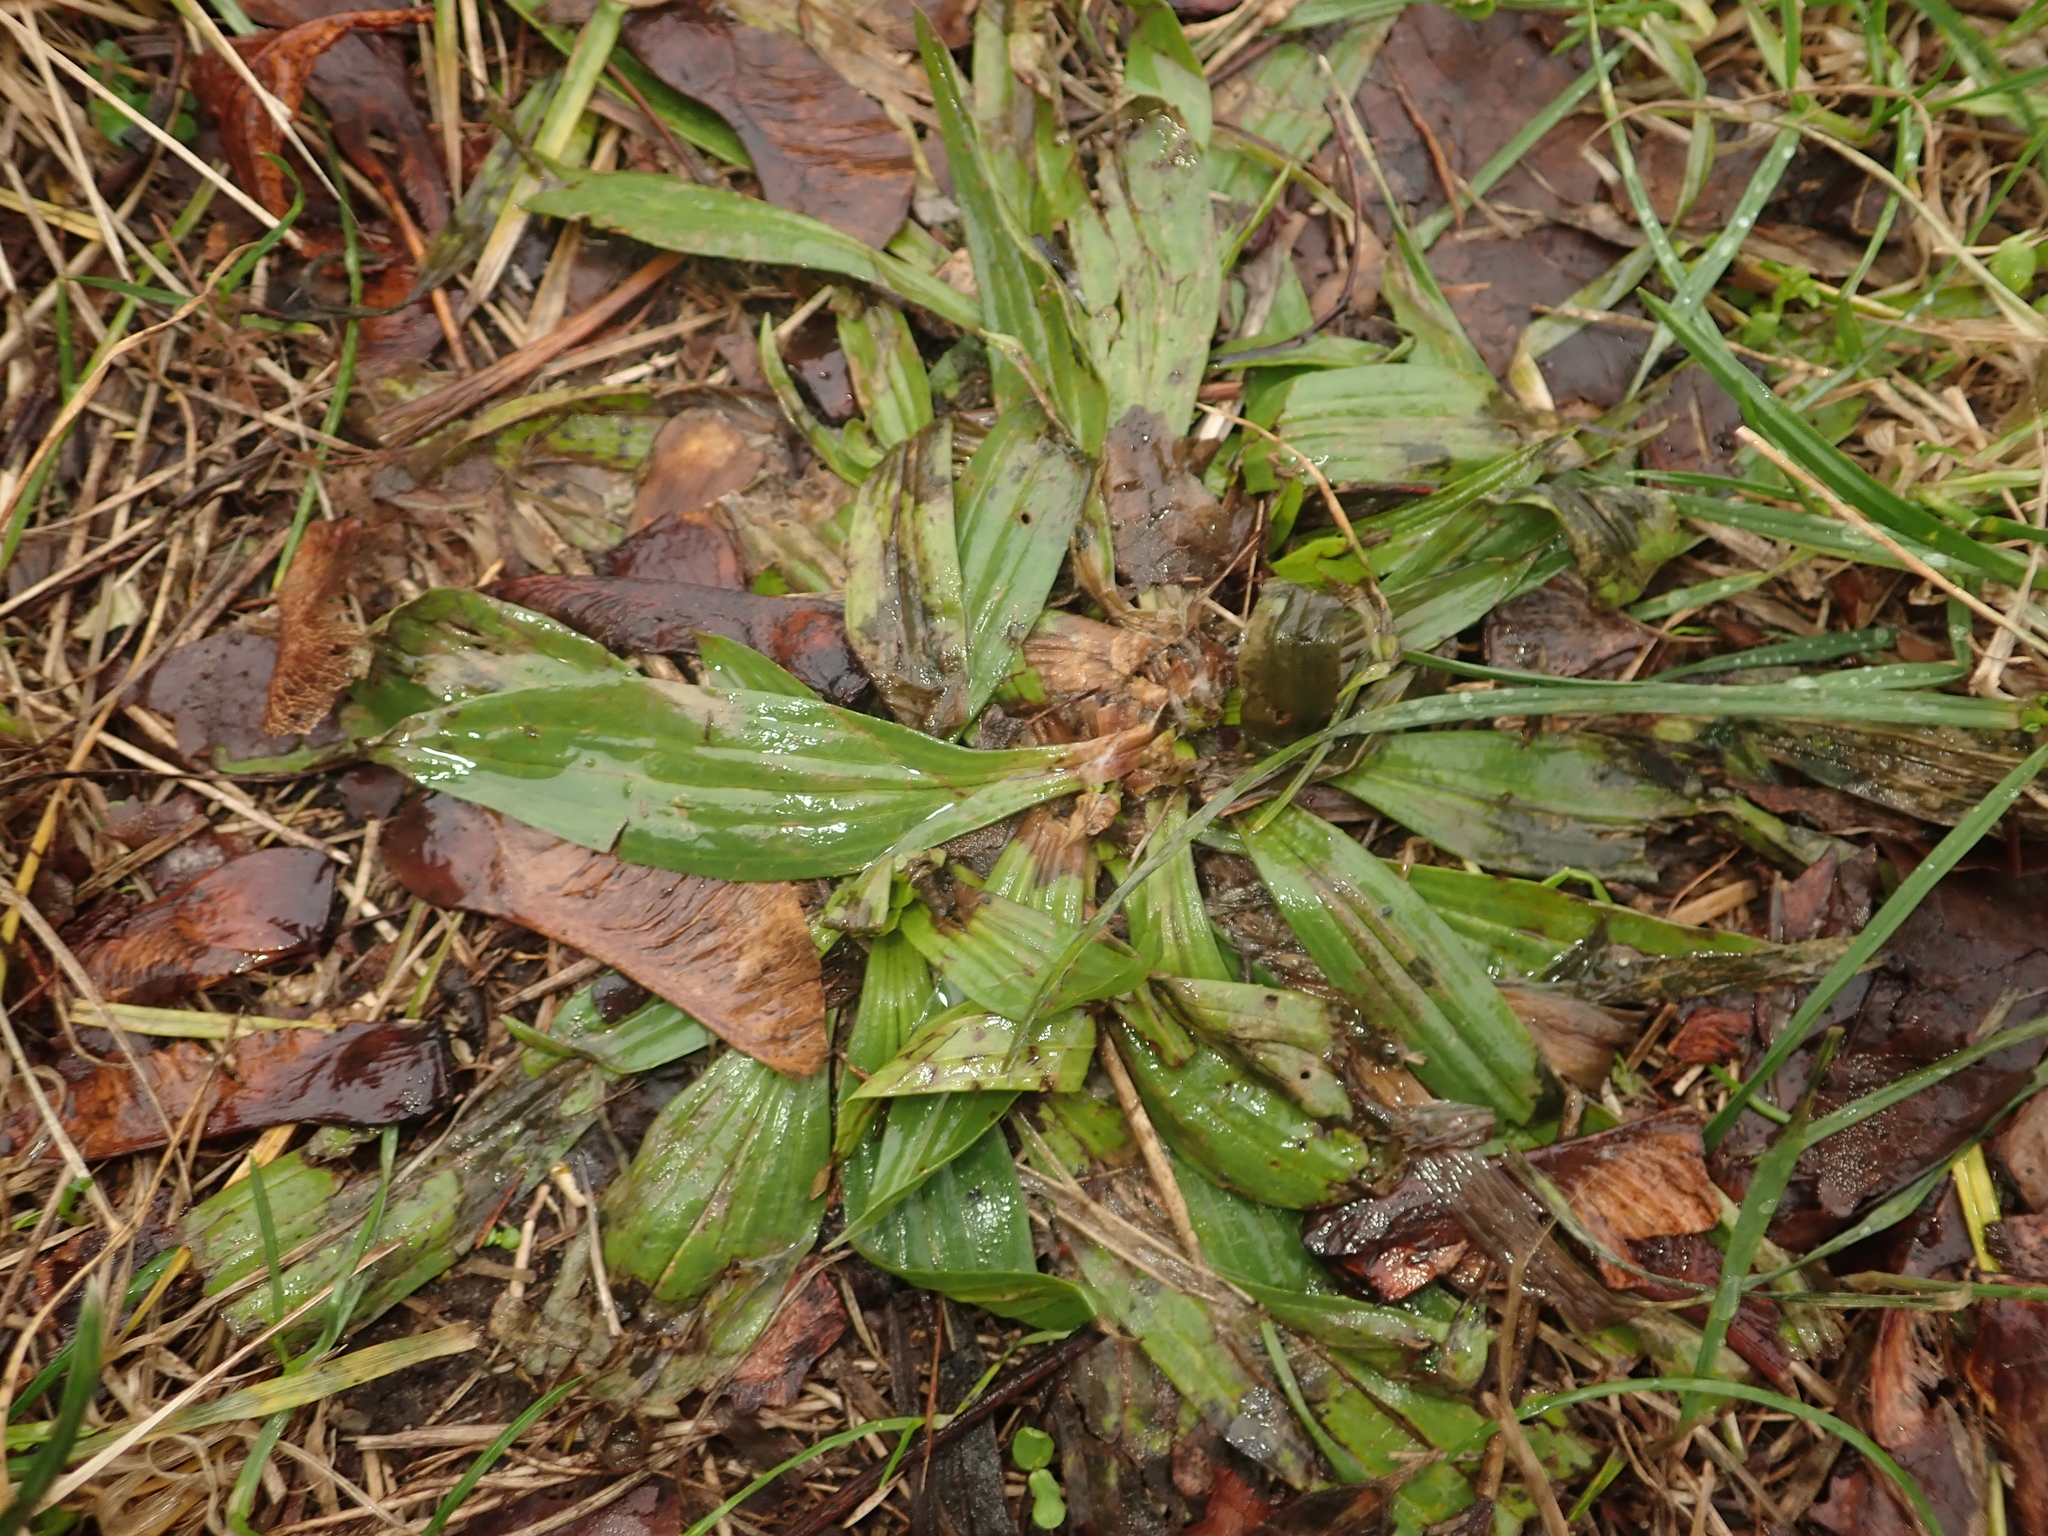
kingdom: Plantae
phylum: Tracheophyta
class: Magnoliopsida
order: Lamiales
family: Plantaginaceae
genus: Plantago
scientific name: Plantago lanceolata
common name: Ribwort plantain
